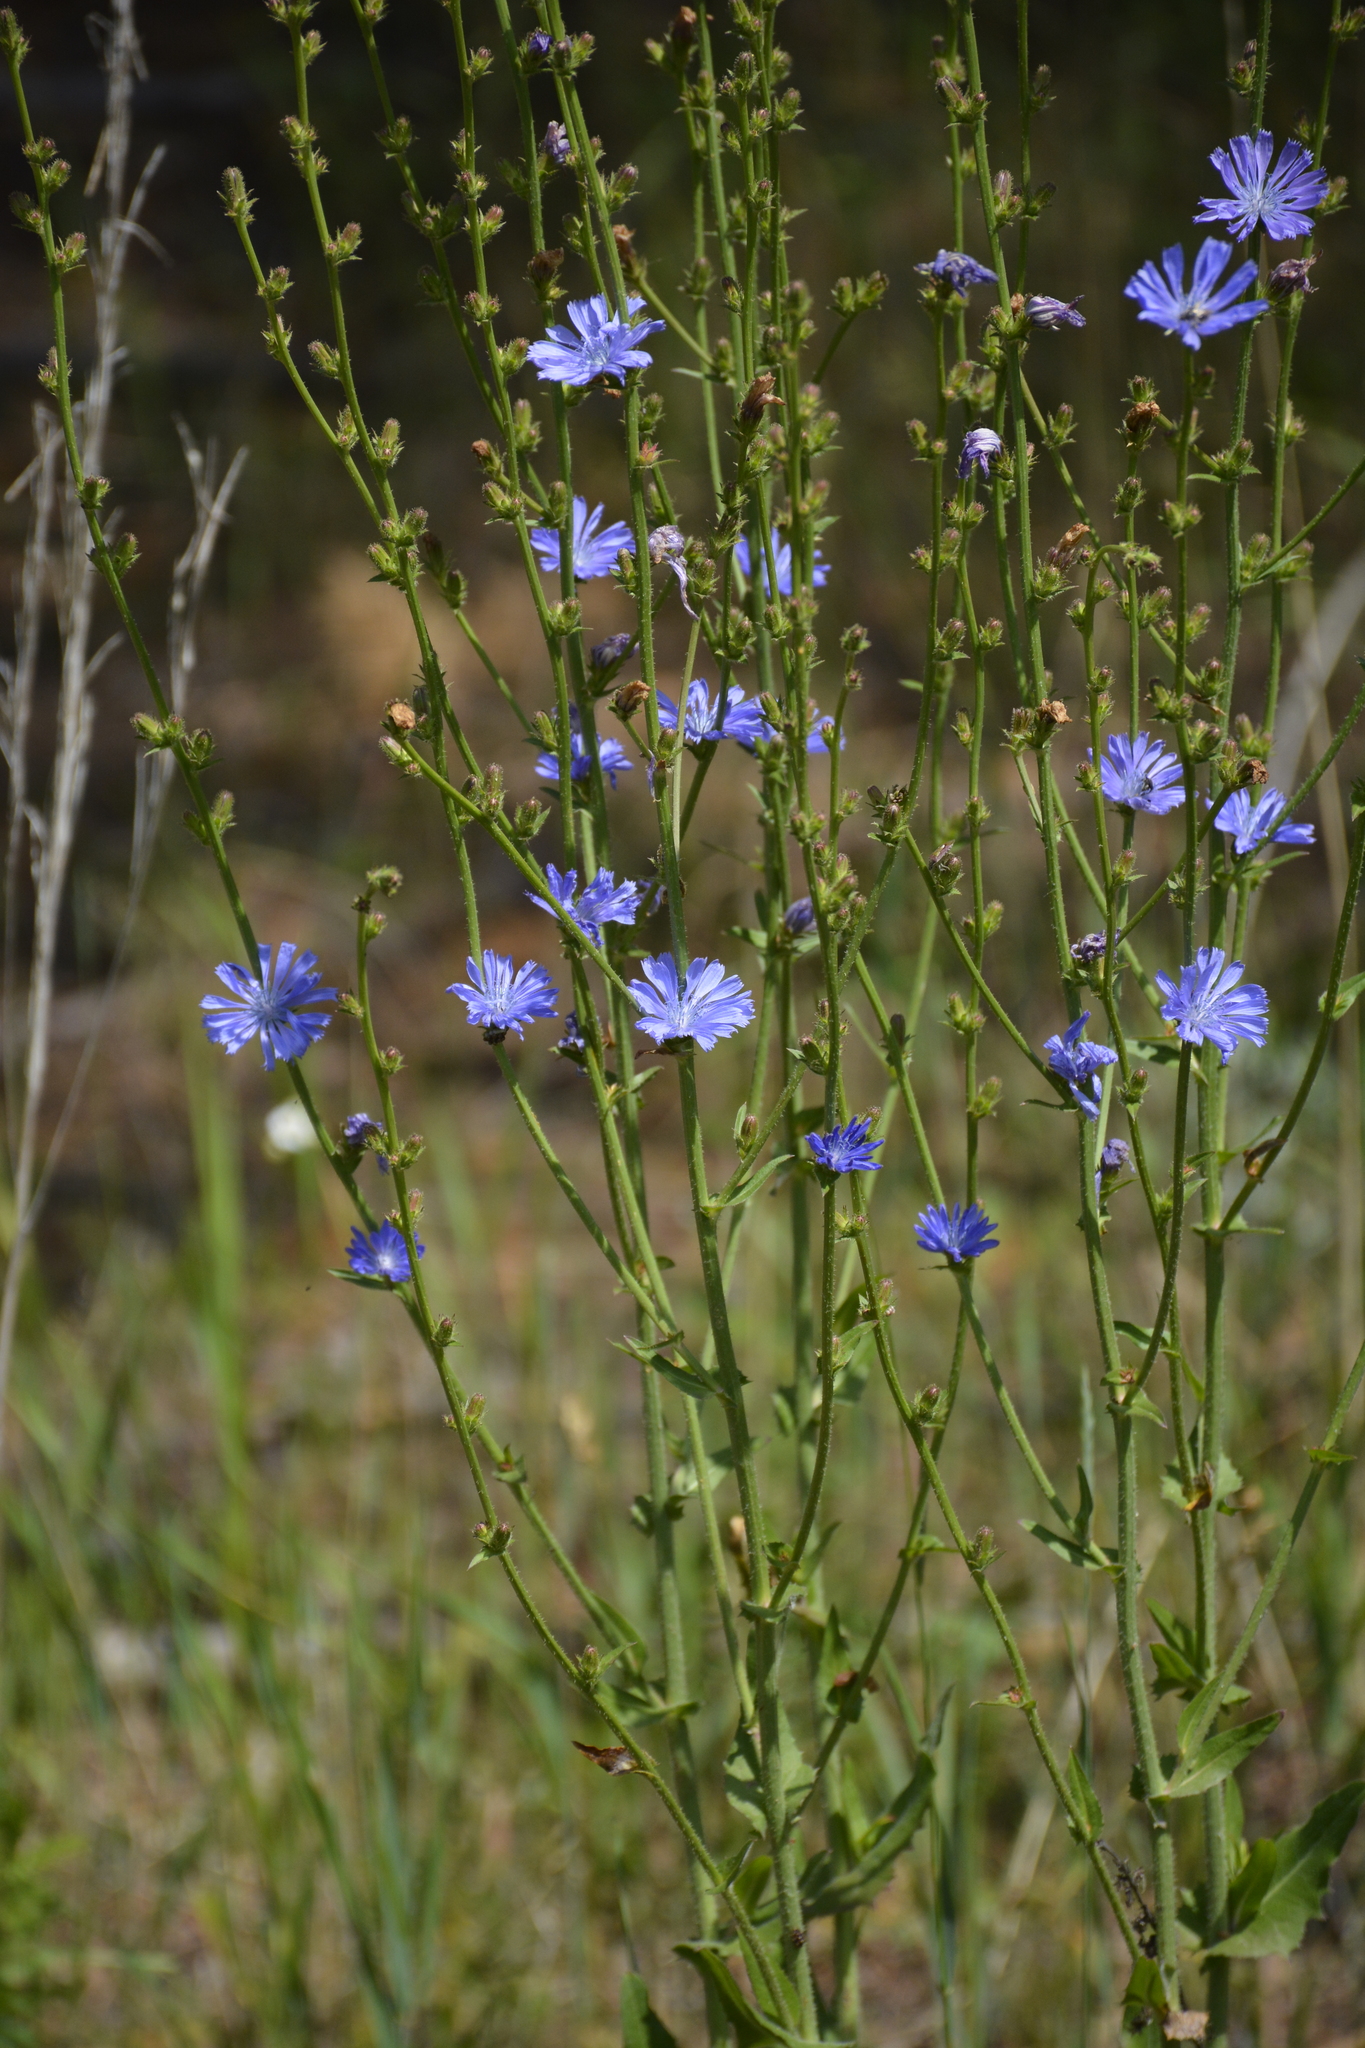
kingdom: Plantae
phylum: Tracheophyta
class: Magnoliopsida
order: Asterales
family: Asteraceae
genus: Cichorium
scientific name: Cichorium intybus
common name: Chicory
